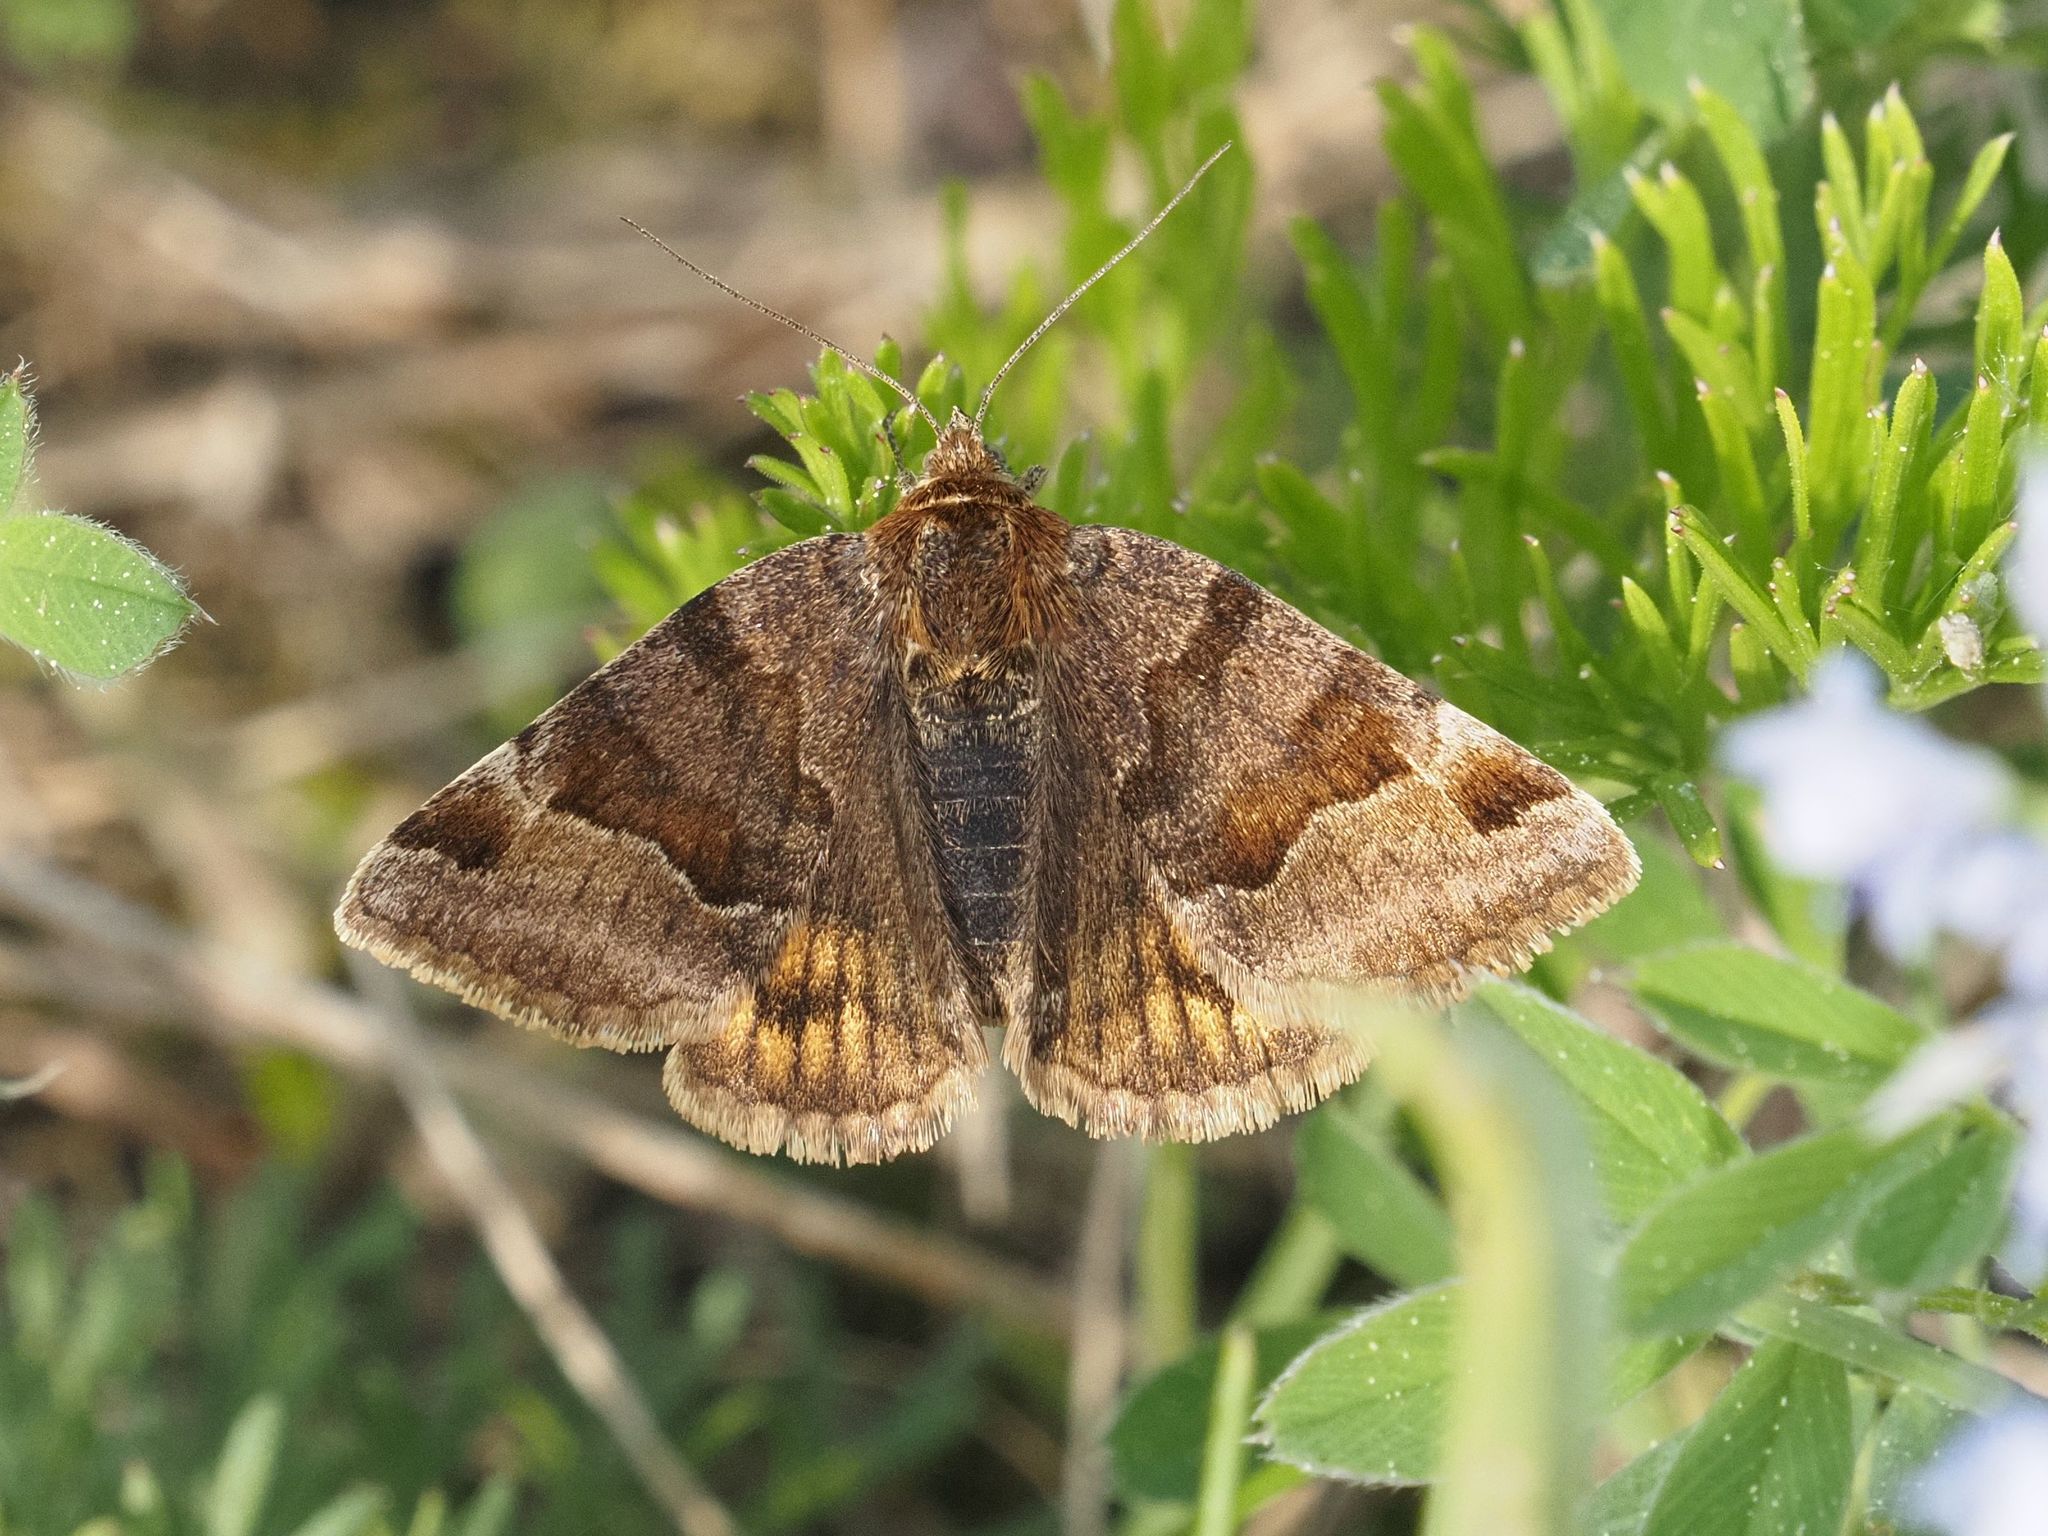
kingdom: Animalia
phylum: Arthropoda
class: Insecta
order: Lepidoptera
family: Erebidae
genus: Euclidia
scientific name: Euclidia glyphica
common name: Burnet companion
